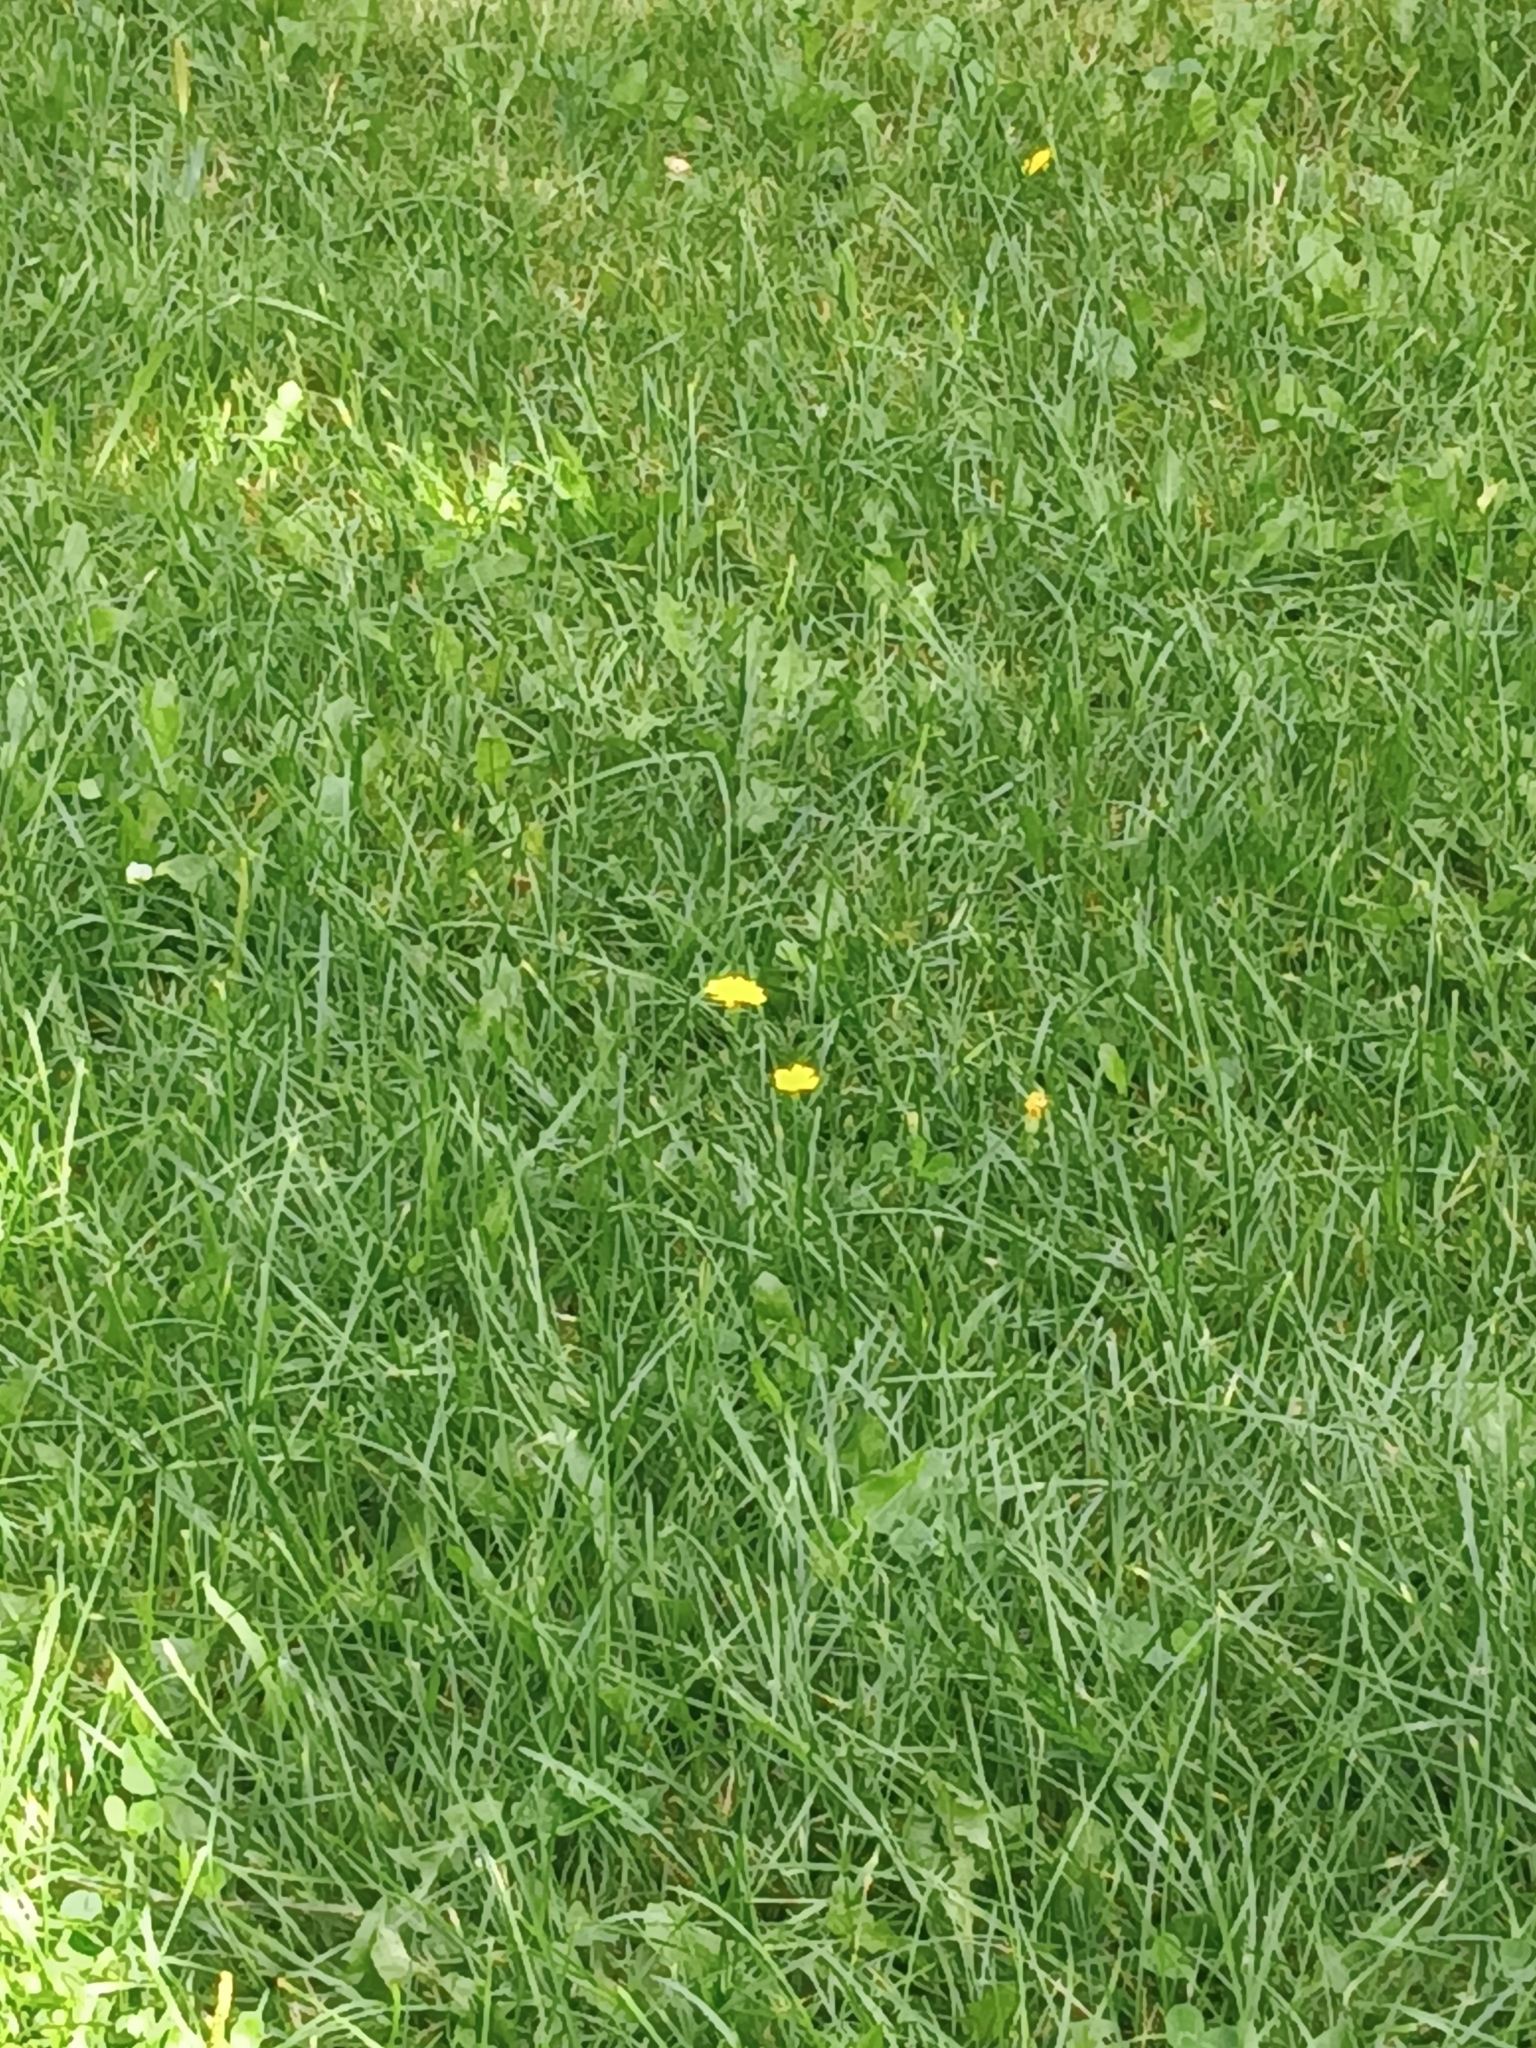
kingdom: Plantae
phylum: Tracheophyta
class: Magnoliopsida
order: Asterales
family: Asteraceae
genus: Scorzoneroides
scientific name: Scorzoneroides autumnalis
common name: Autumn hawkbit
